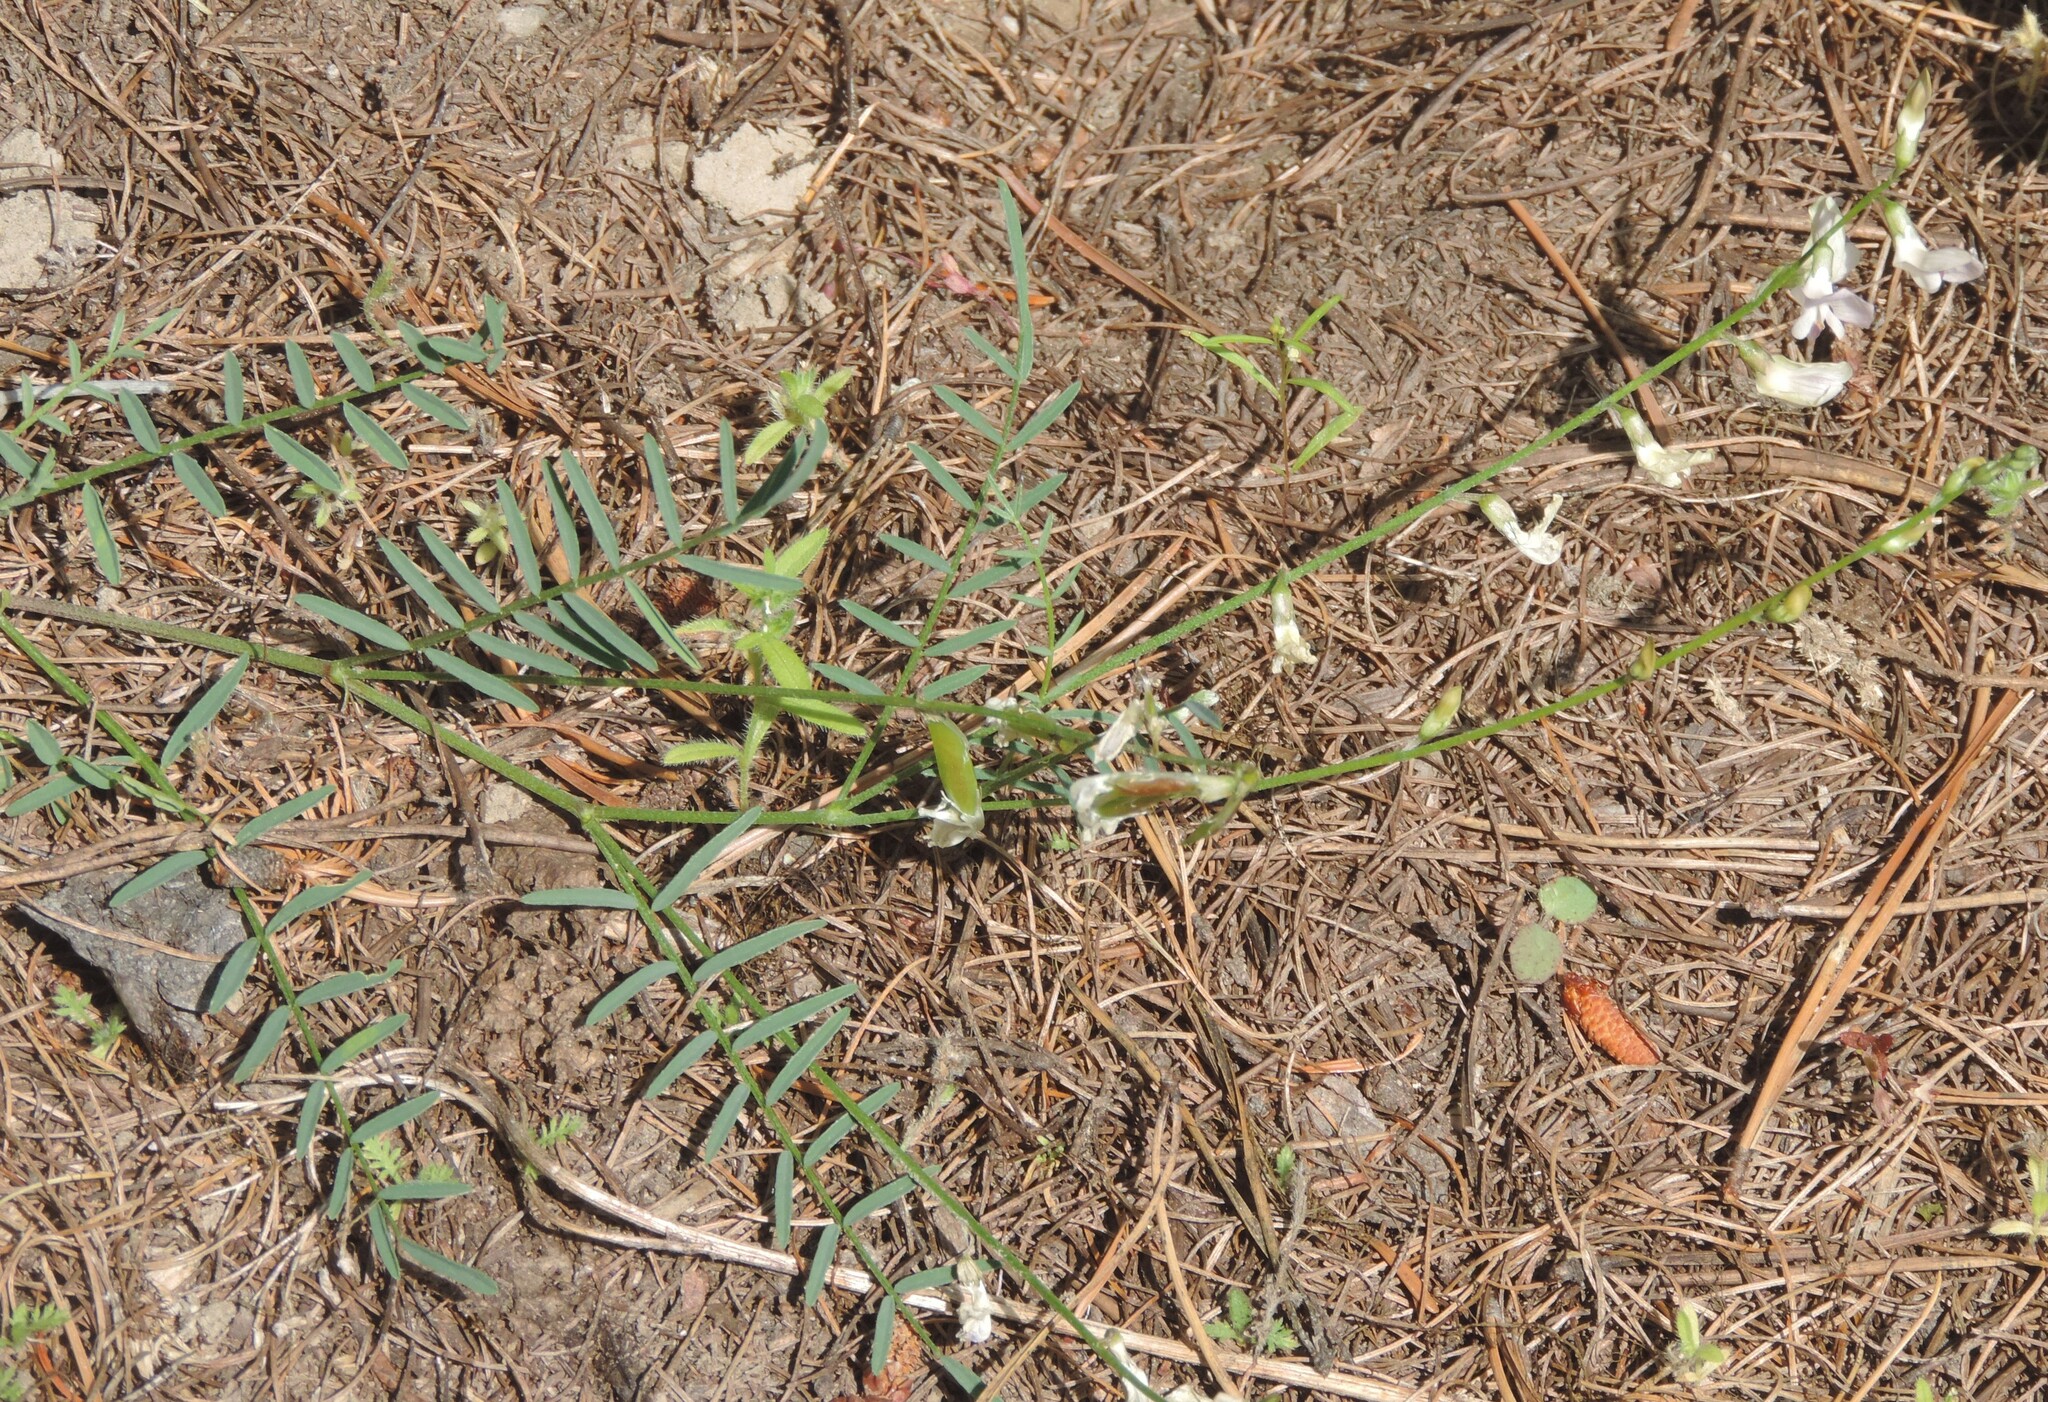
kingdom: Plantae
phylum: Tracheophyta
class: Magnoliopsida
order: Fabales
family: Fabaceae
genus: Astragalus
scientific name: Astragalus miser
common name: Timber milkvetch
